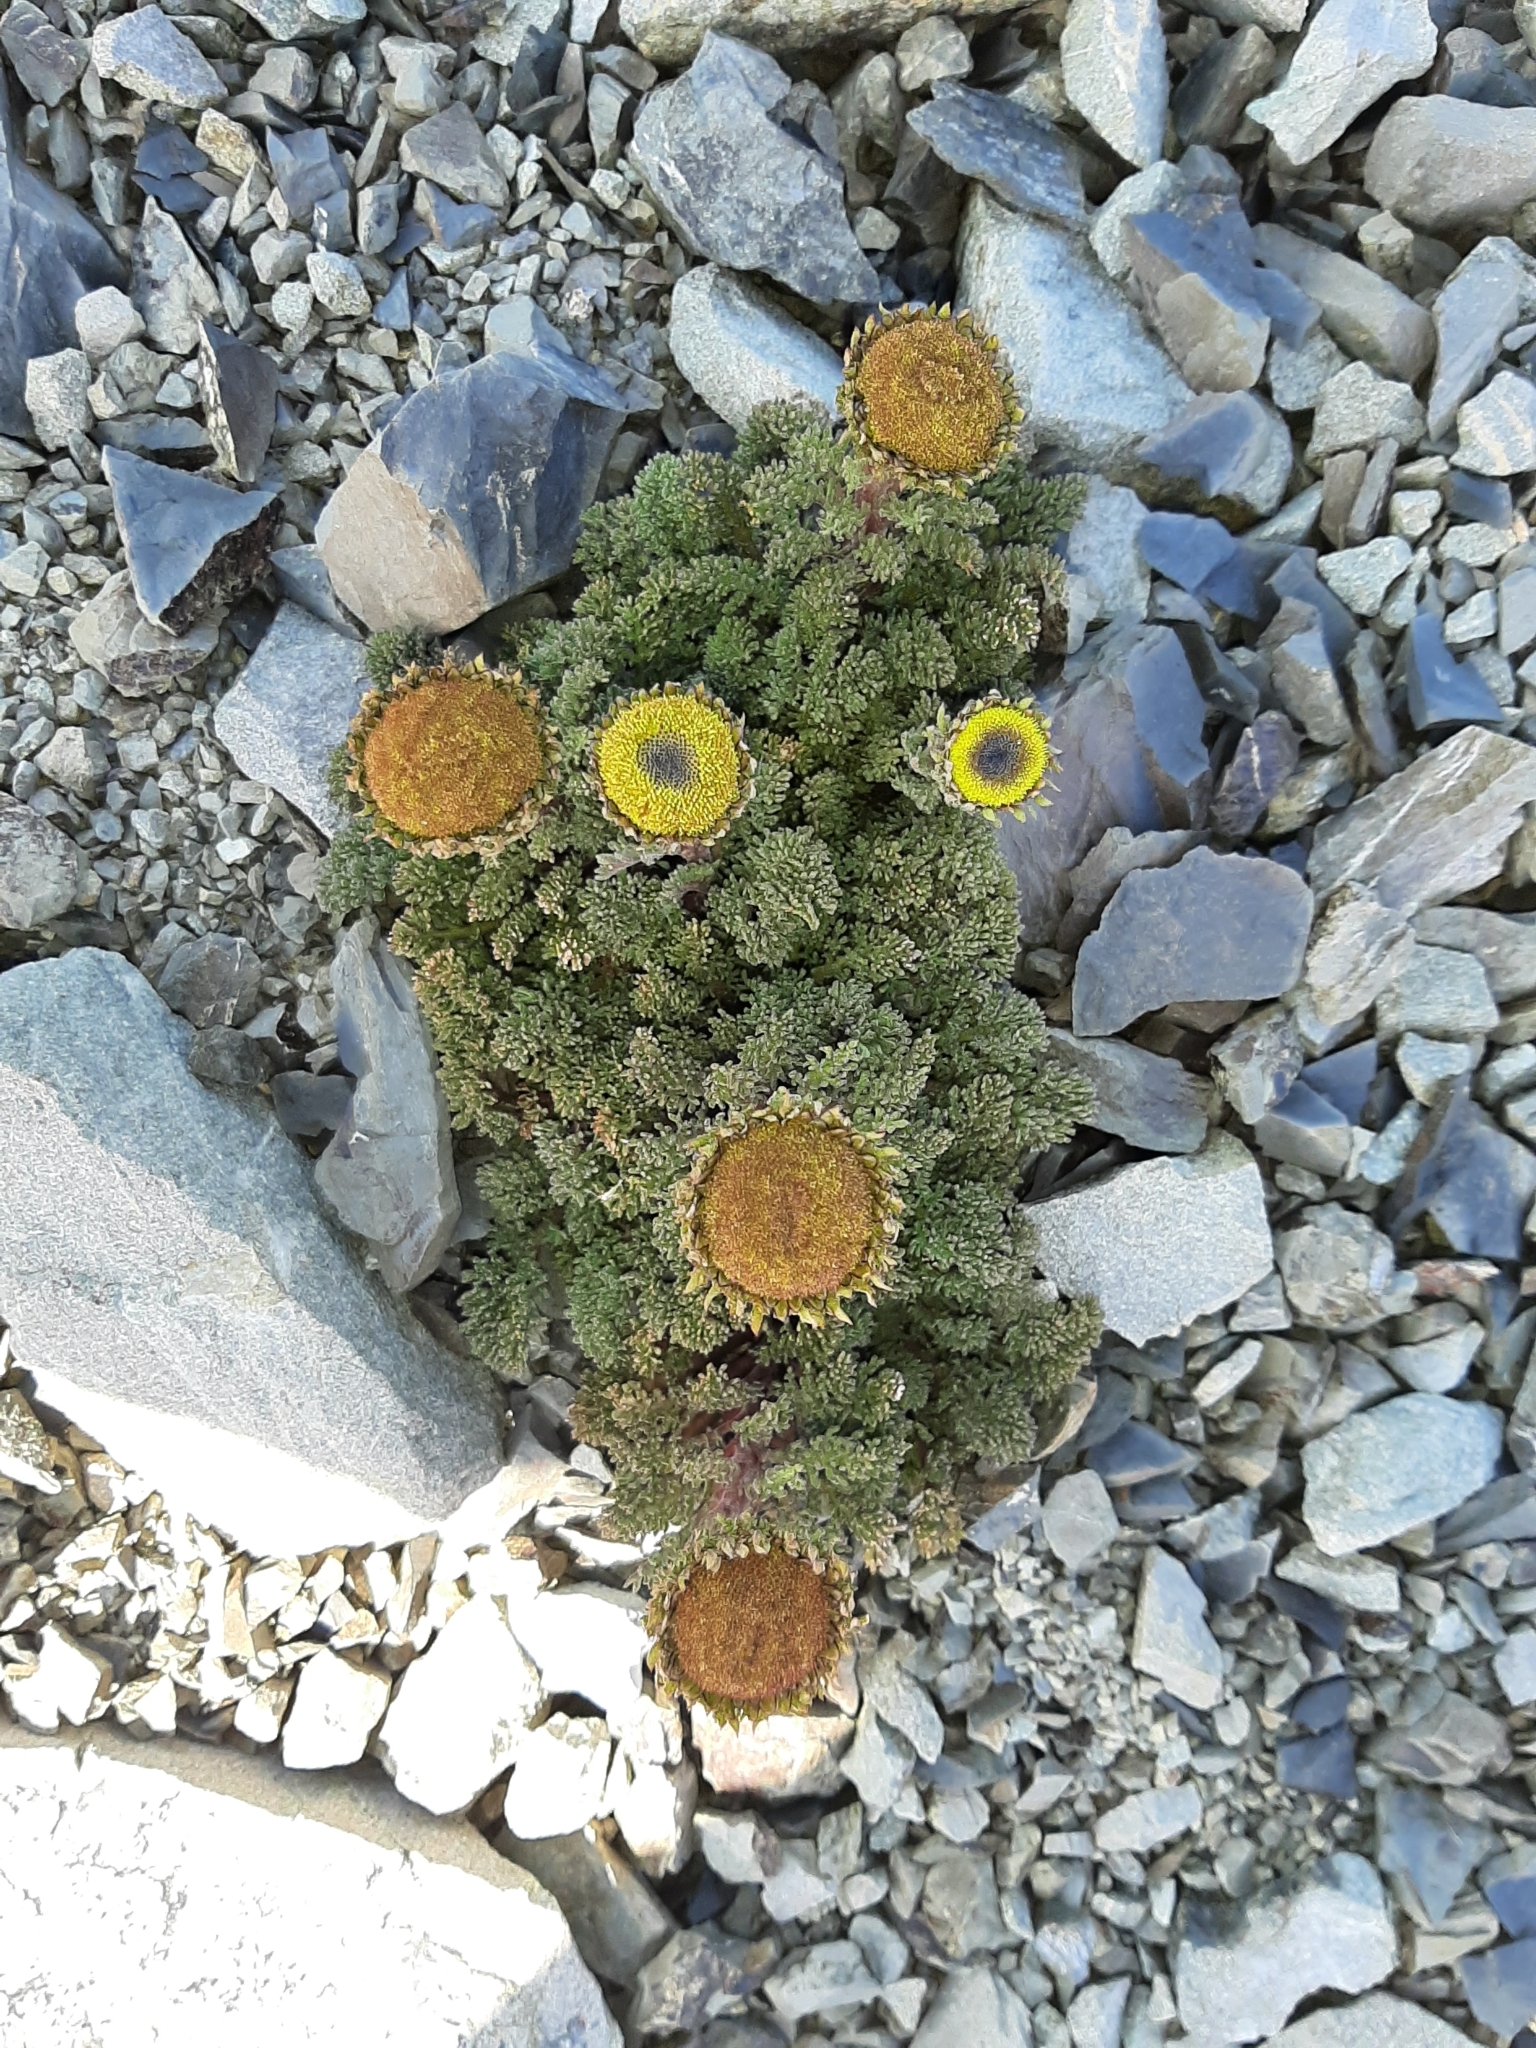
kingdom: Plantae
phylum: Tracheophyta
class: Magnoliopsida
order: Asterales
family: Asteraceae
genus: Leptinella
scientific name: Leptinella dendyi
